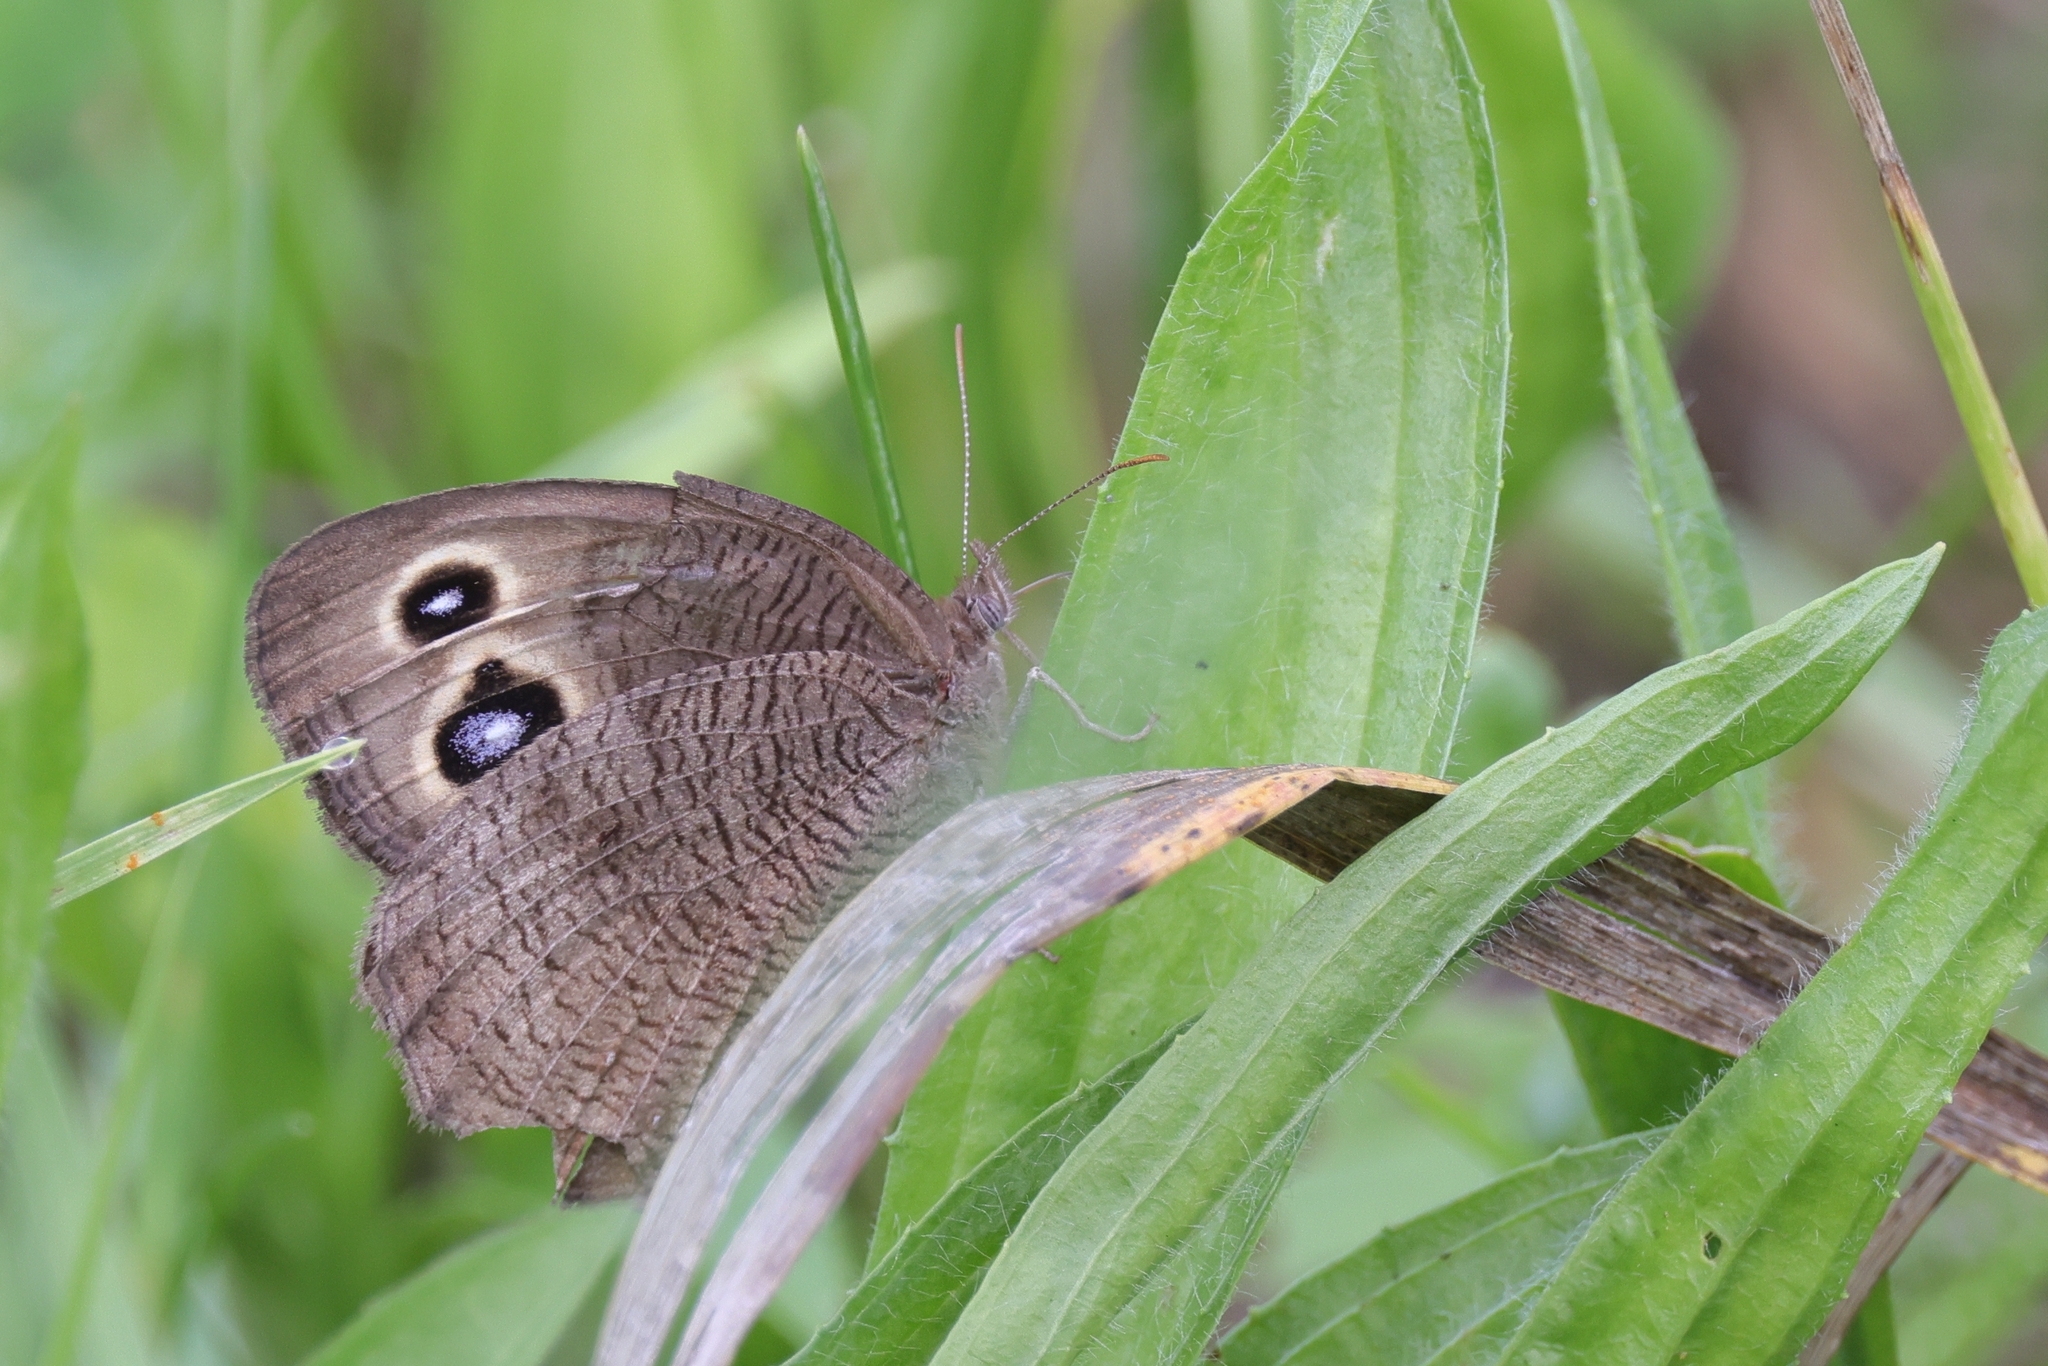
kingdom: Animalia
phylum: Arthropoda
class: Insecta
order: Lepidoptera
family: Nymphalidae
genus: Cercyonis
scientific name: Cercyonis pegala
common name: Common wood-nymph
